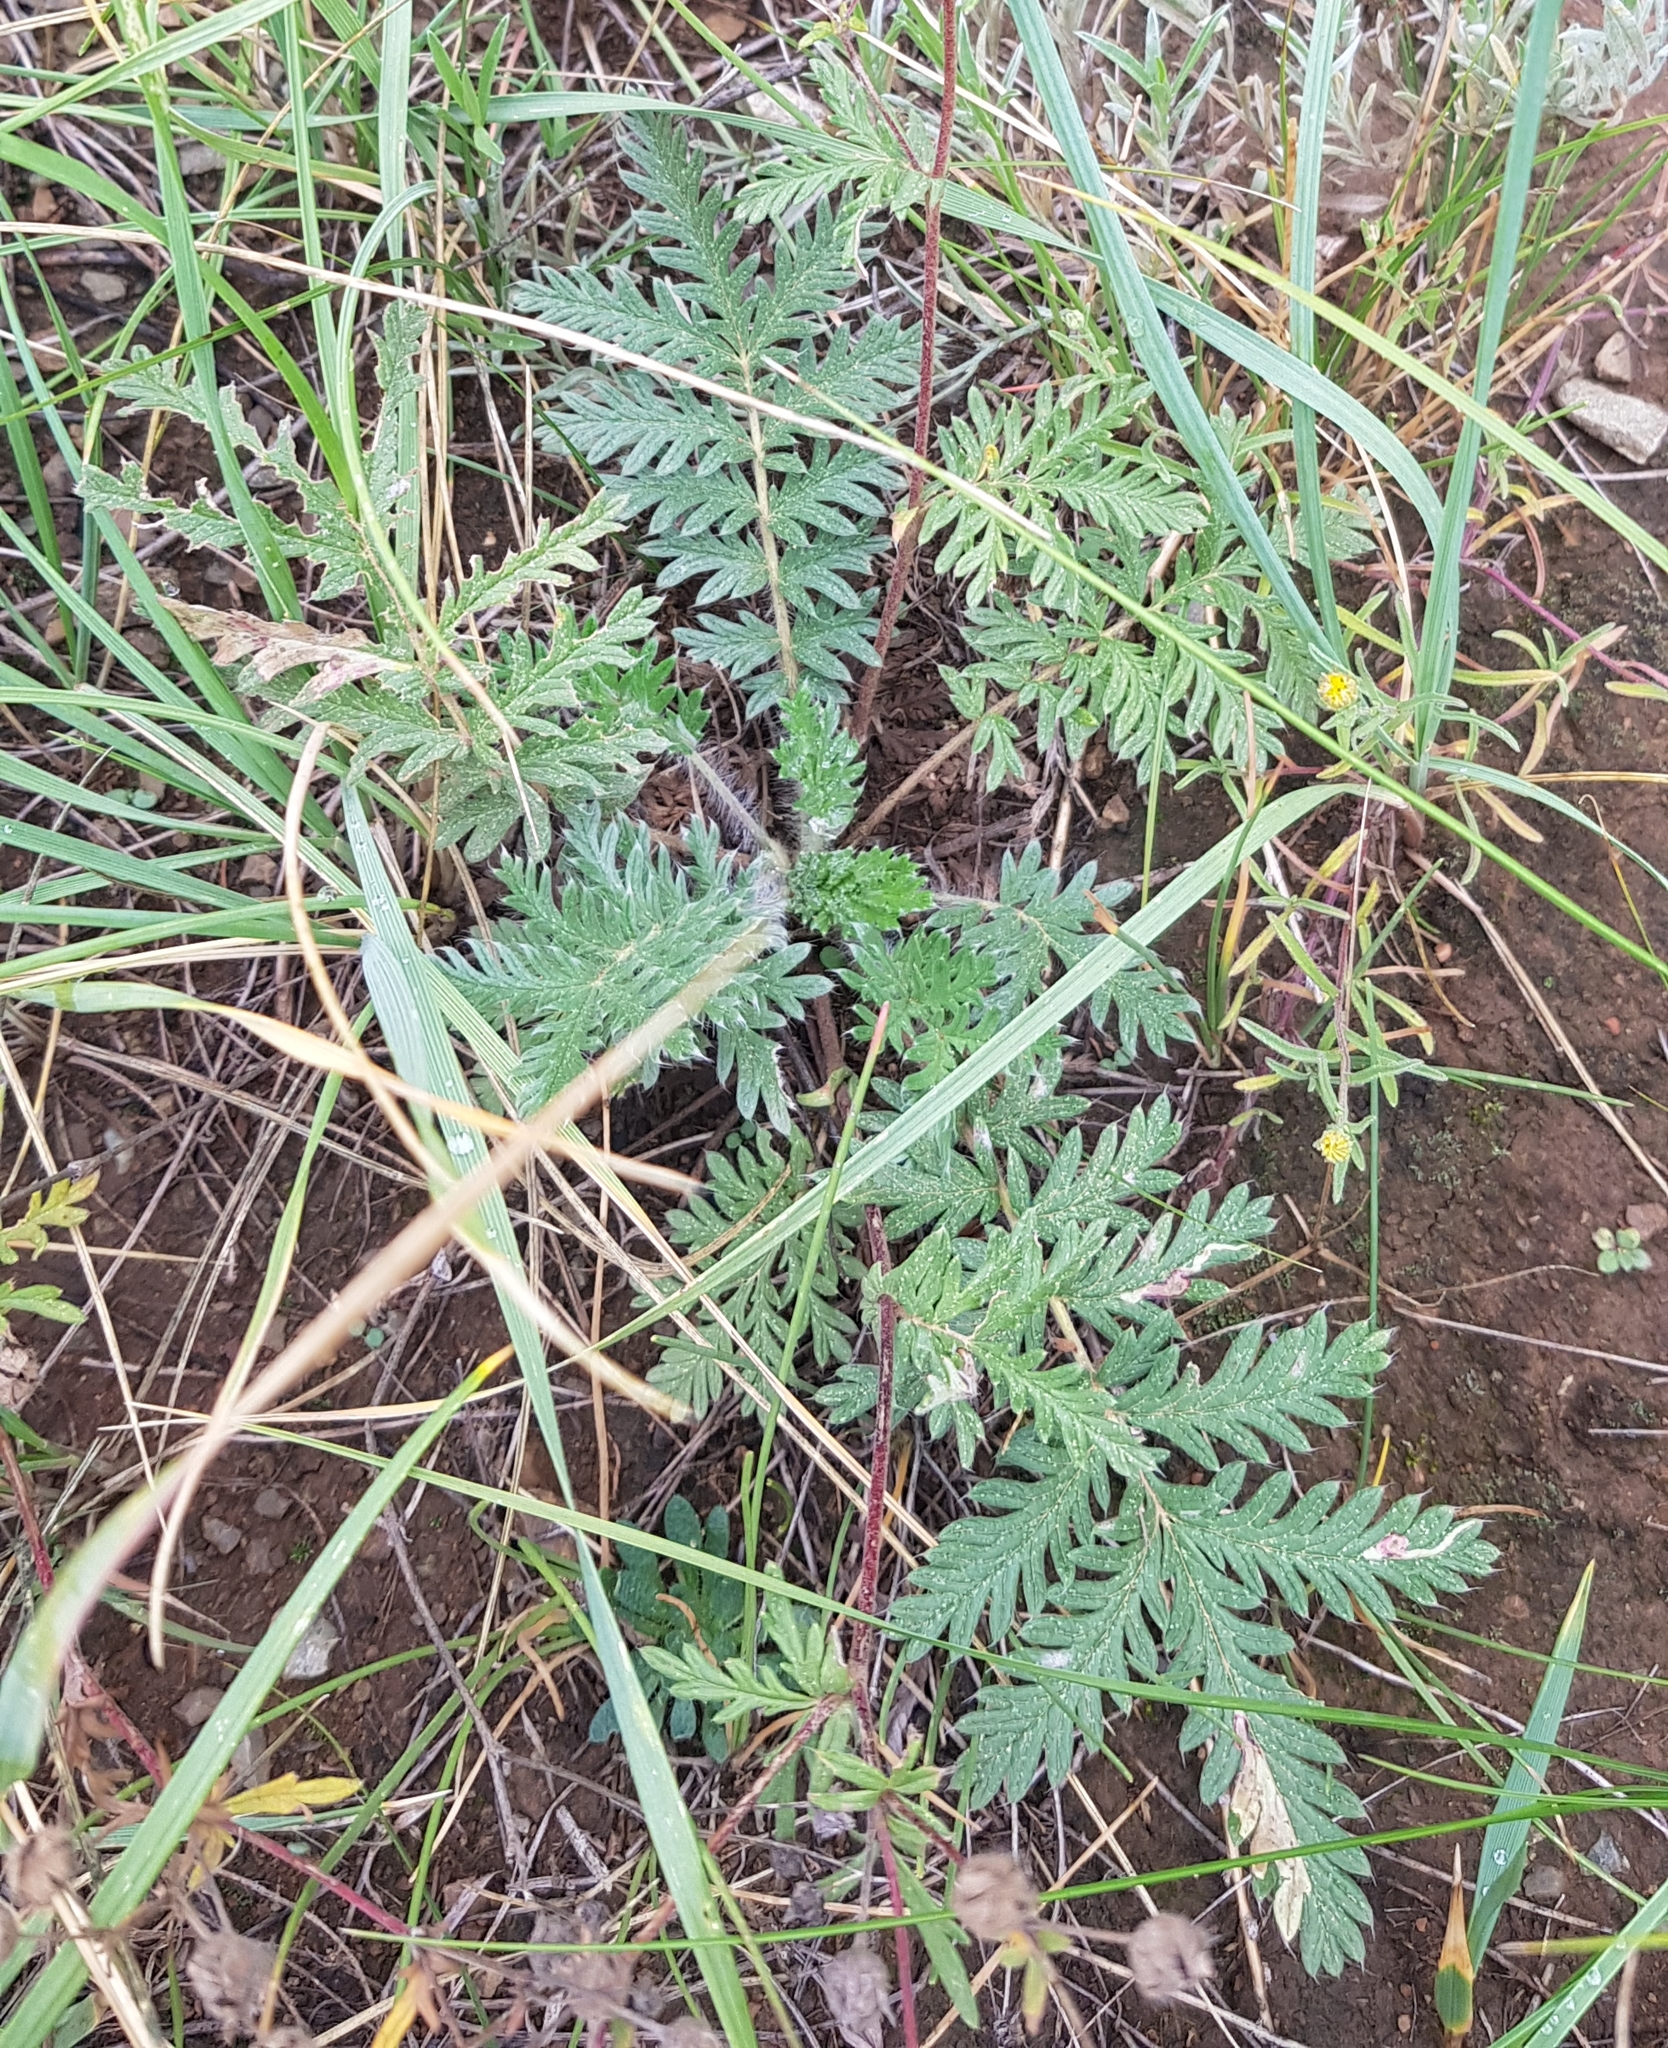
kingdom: Plantae
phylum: Tracheophyta
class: Magnoliopsida
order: Rosales
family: Rosaceae
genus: Potentilla
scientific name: Potentilla tergemina
